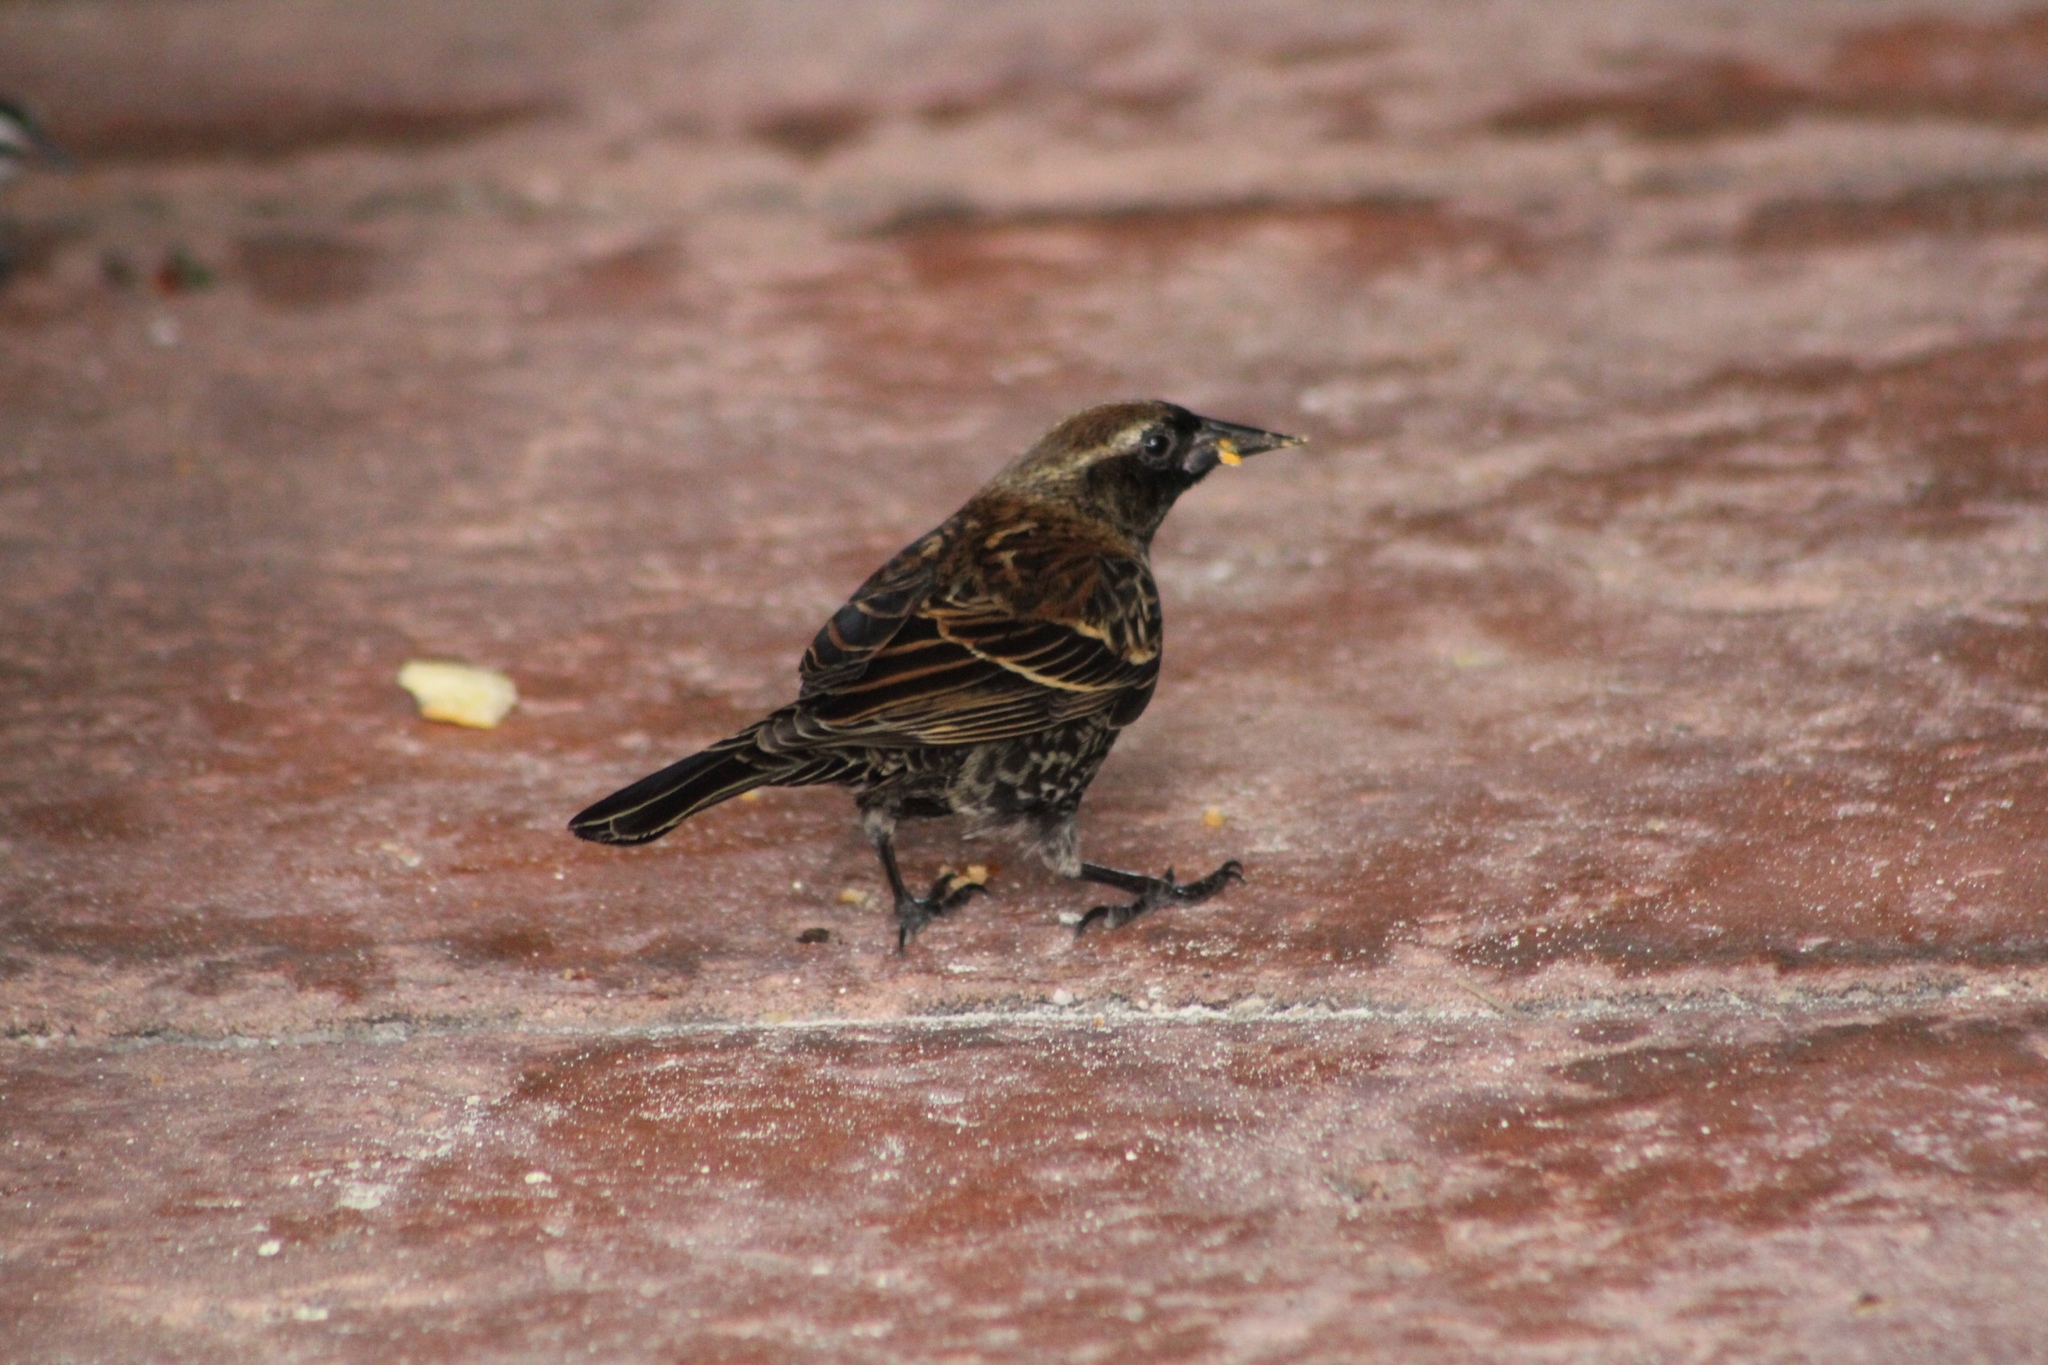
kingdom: Animalia
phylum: Chordata
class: Aves
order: Passeriformes
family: Icteridae
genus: Agelaius
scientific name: Agelaius phoeniceus
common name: Red-winged blackbird
